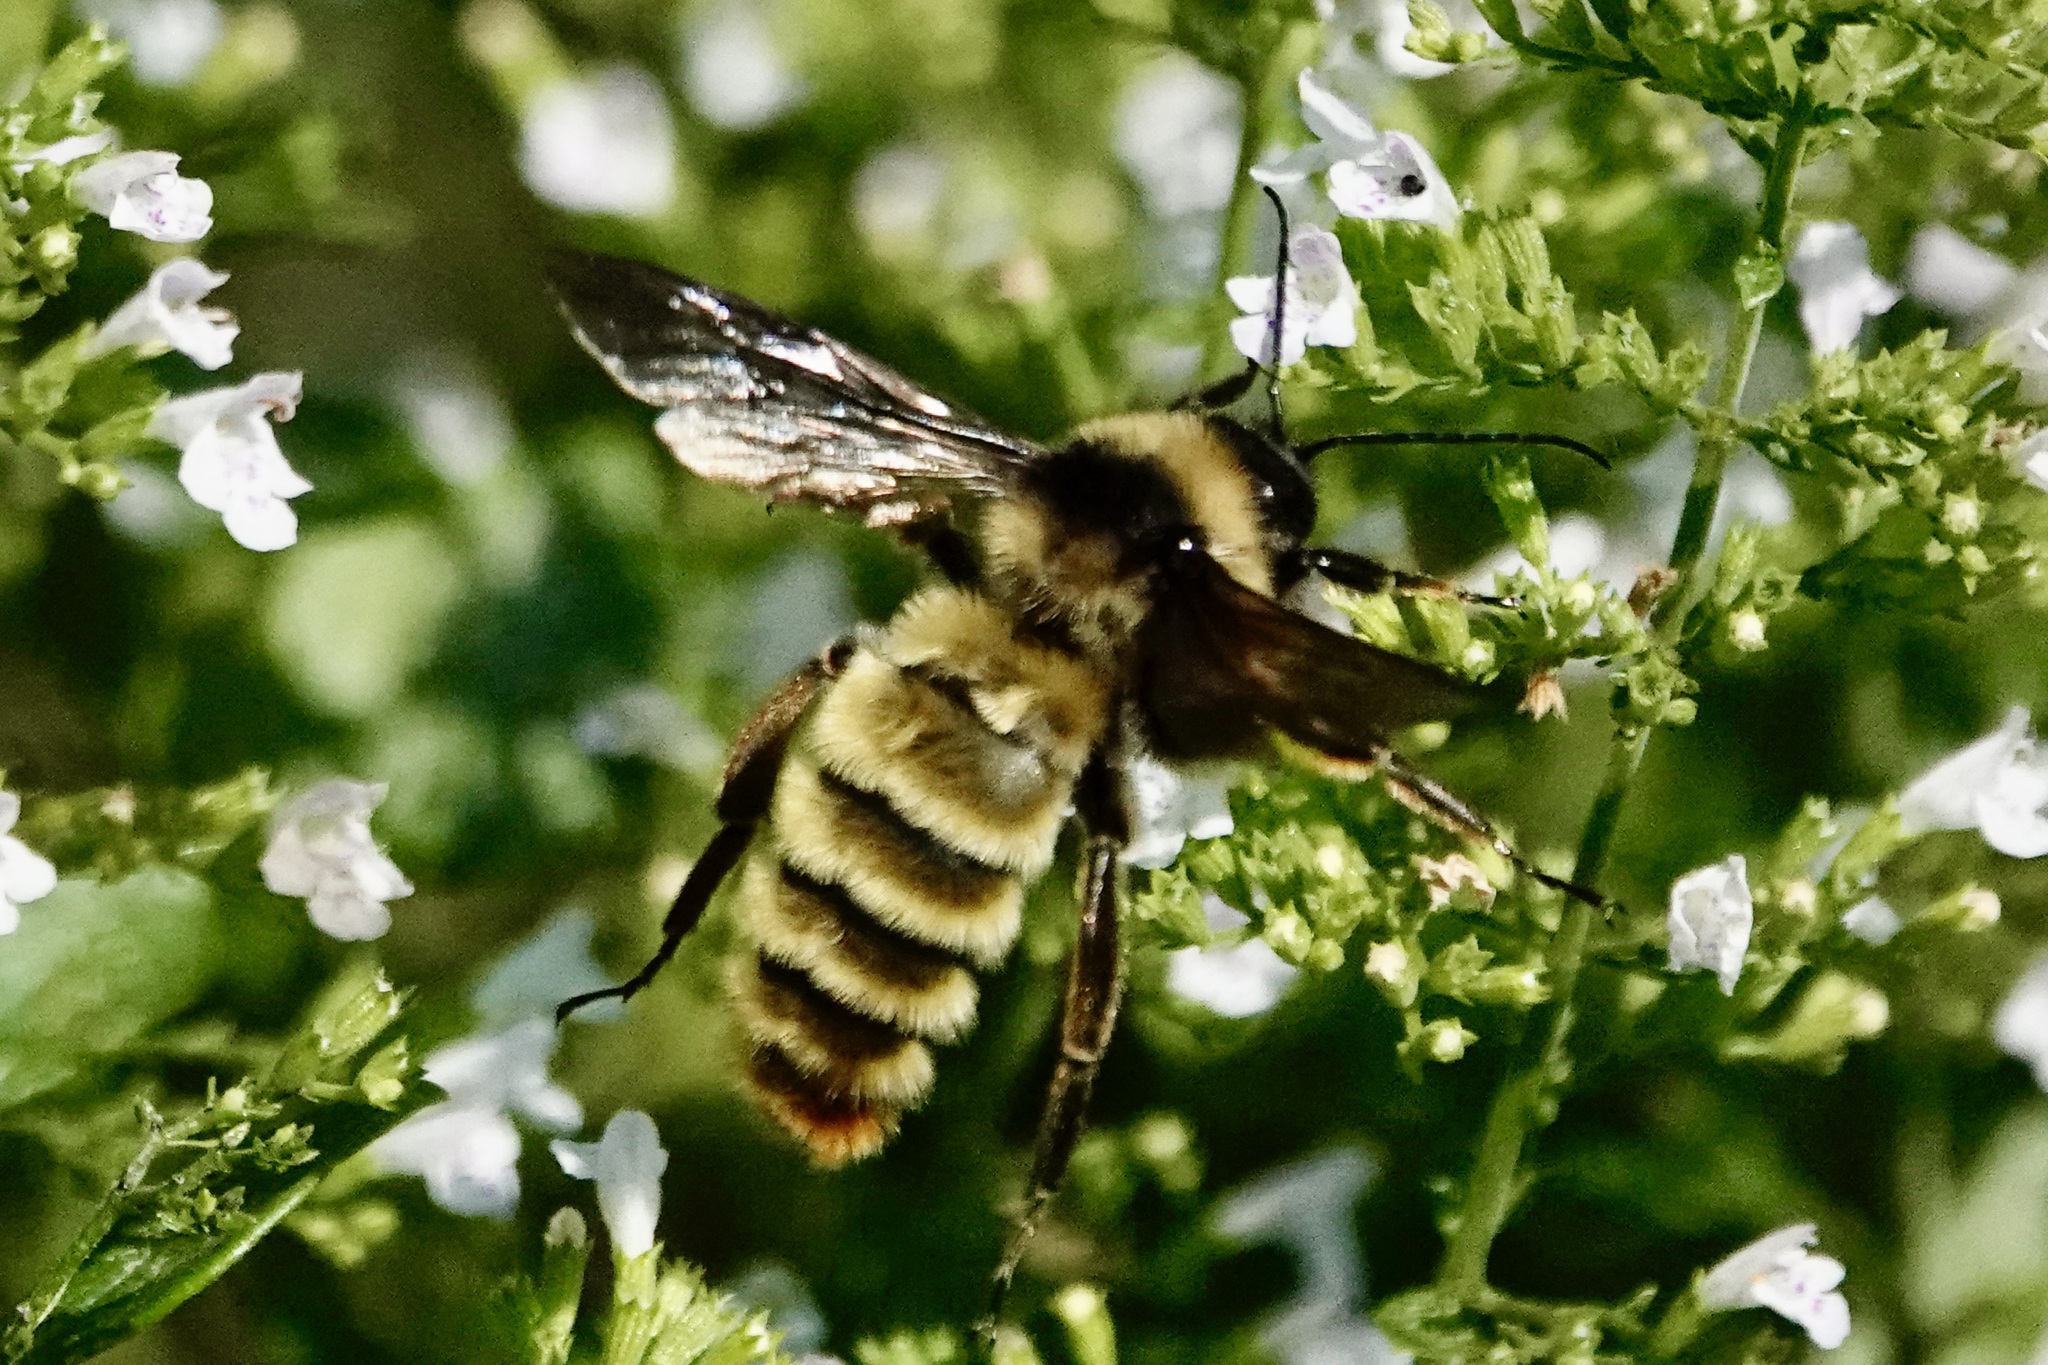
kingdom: Animalia
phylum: Arthropoda
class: Insecta
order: Hymenoptera
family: Apidae
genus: Bombus
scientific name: Bombus pensylvanicus
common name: Bumble bee
